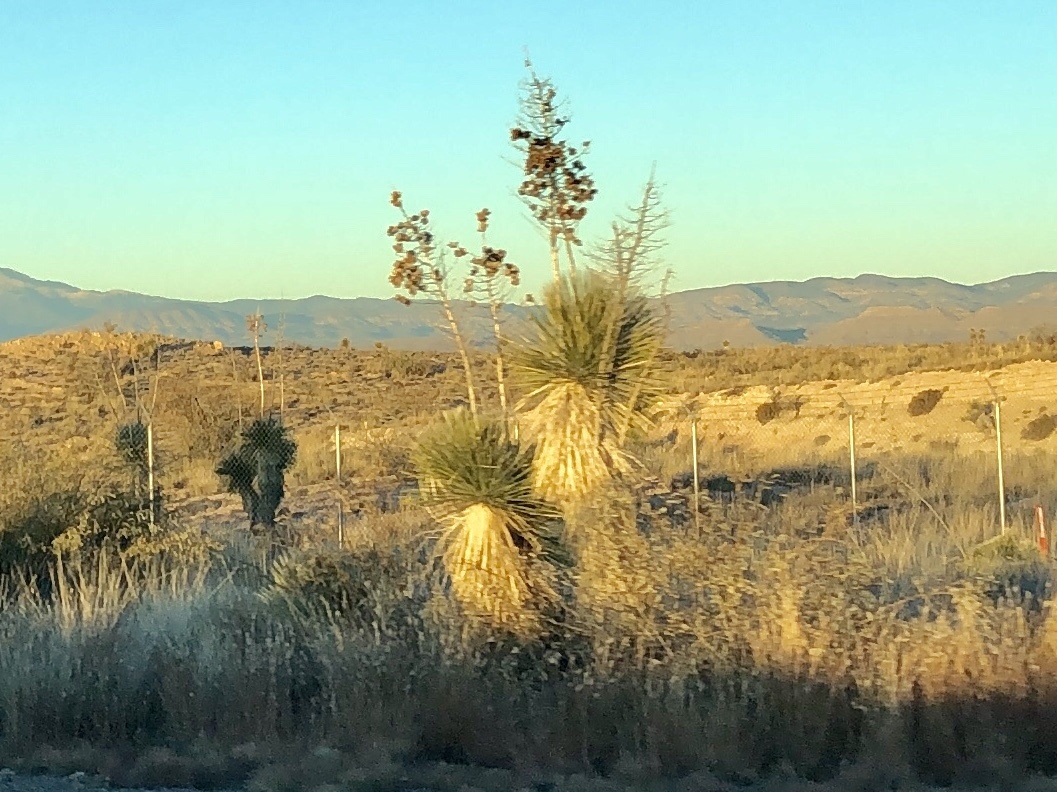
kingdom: Plantae
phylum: Tracheophyta
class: Liliopsida
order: Asparagales
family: Asparagaceae
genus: Yucca
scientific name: Yucca elata
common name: Palmella
